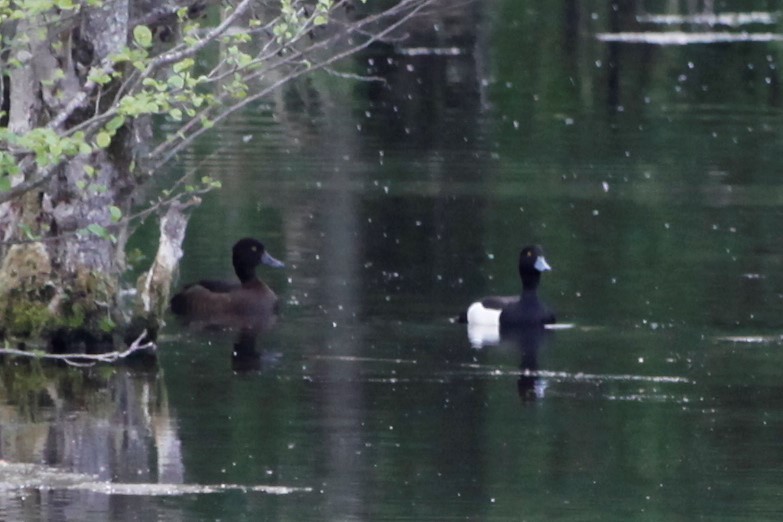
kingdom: Animalia
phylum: Chordata
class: Aves
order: Anseriformes
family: Anatidae
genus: Aythya
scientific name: Aythya fuligula
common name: Tufted duck
